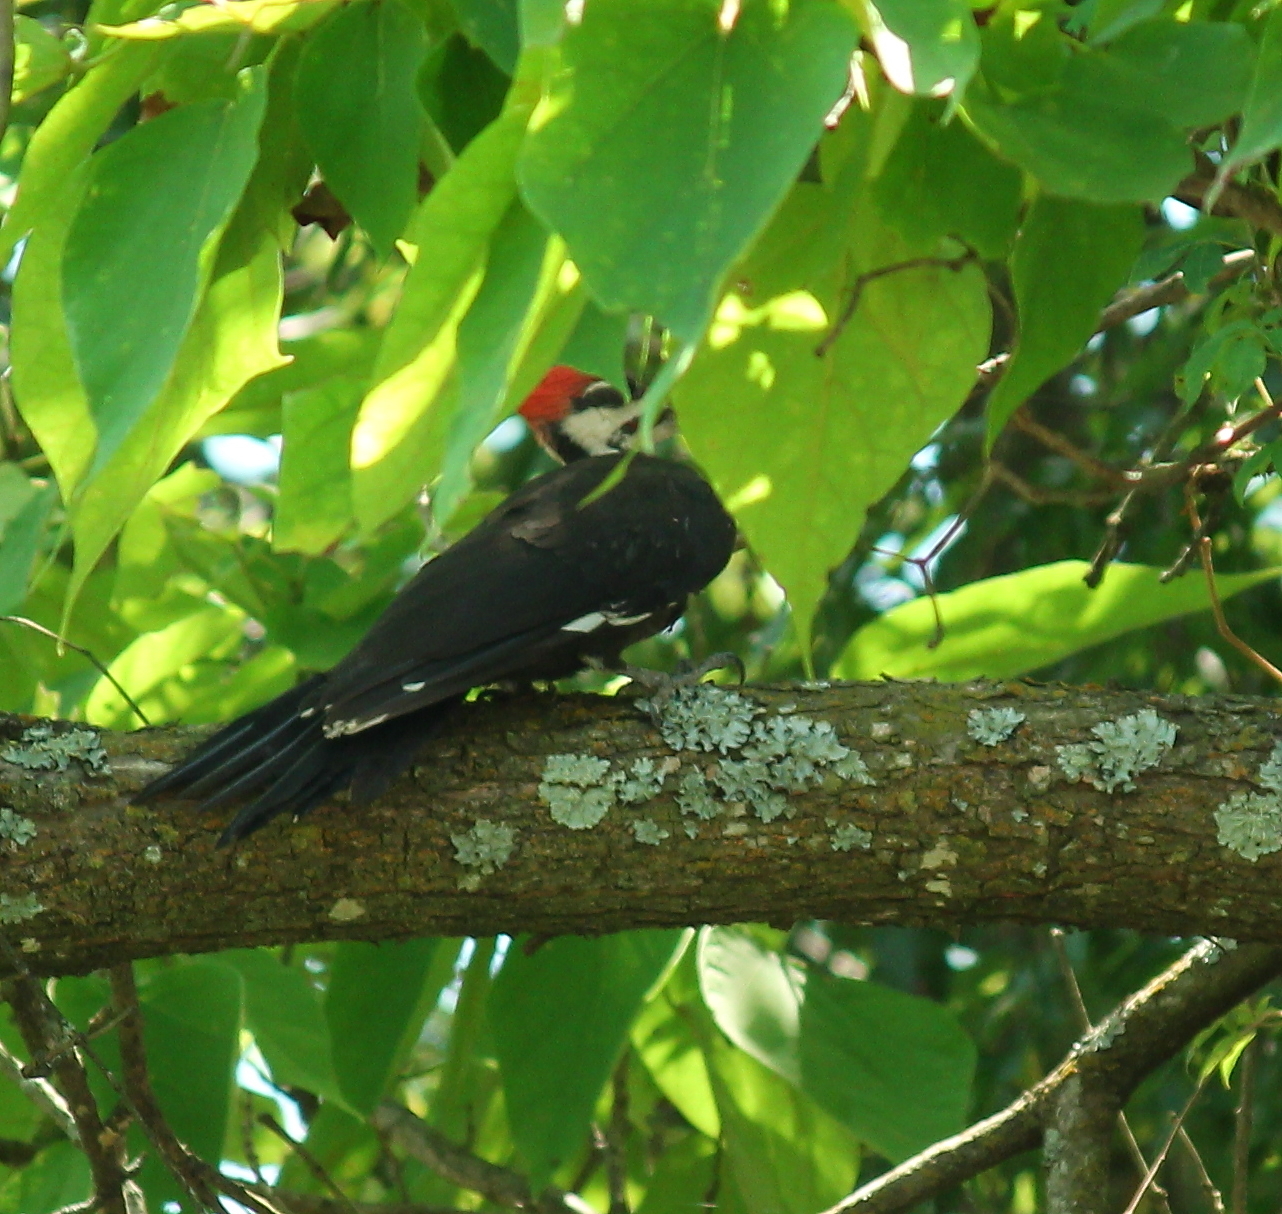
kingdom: Animalia
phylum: Chordata
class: Aves
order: Piciformes
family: Picidae
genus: Dryocopus
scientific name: Dryocopus pileatus
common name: Pileated woodpecker
